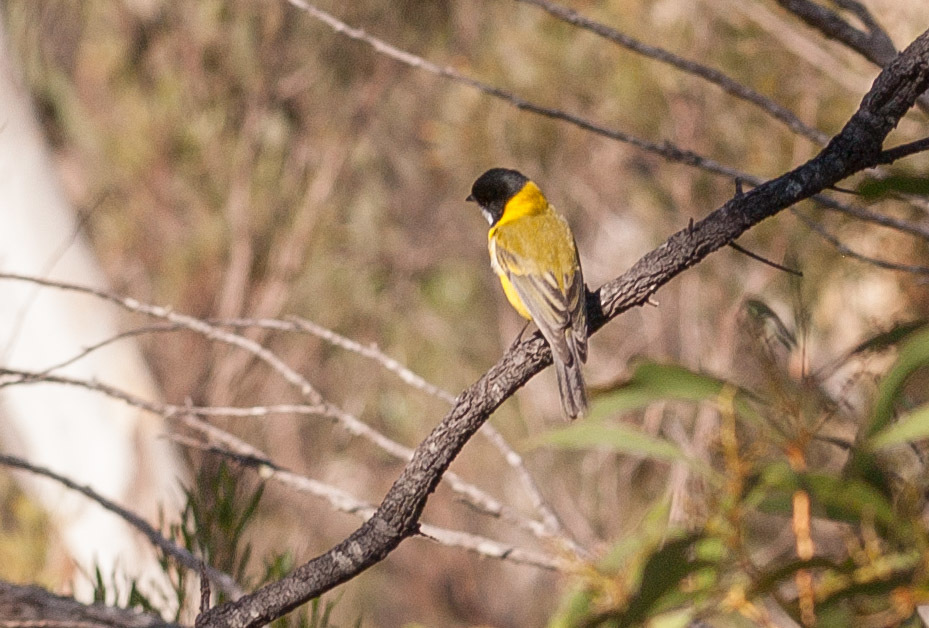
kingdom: Animalia
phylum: Chordata
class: Aves
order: Passeriformes
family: Pachycephalidae
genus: Pachycephala
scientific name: Pachycephala fuliginosa
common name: Western whistler
